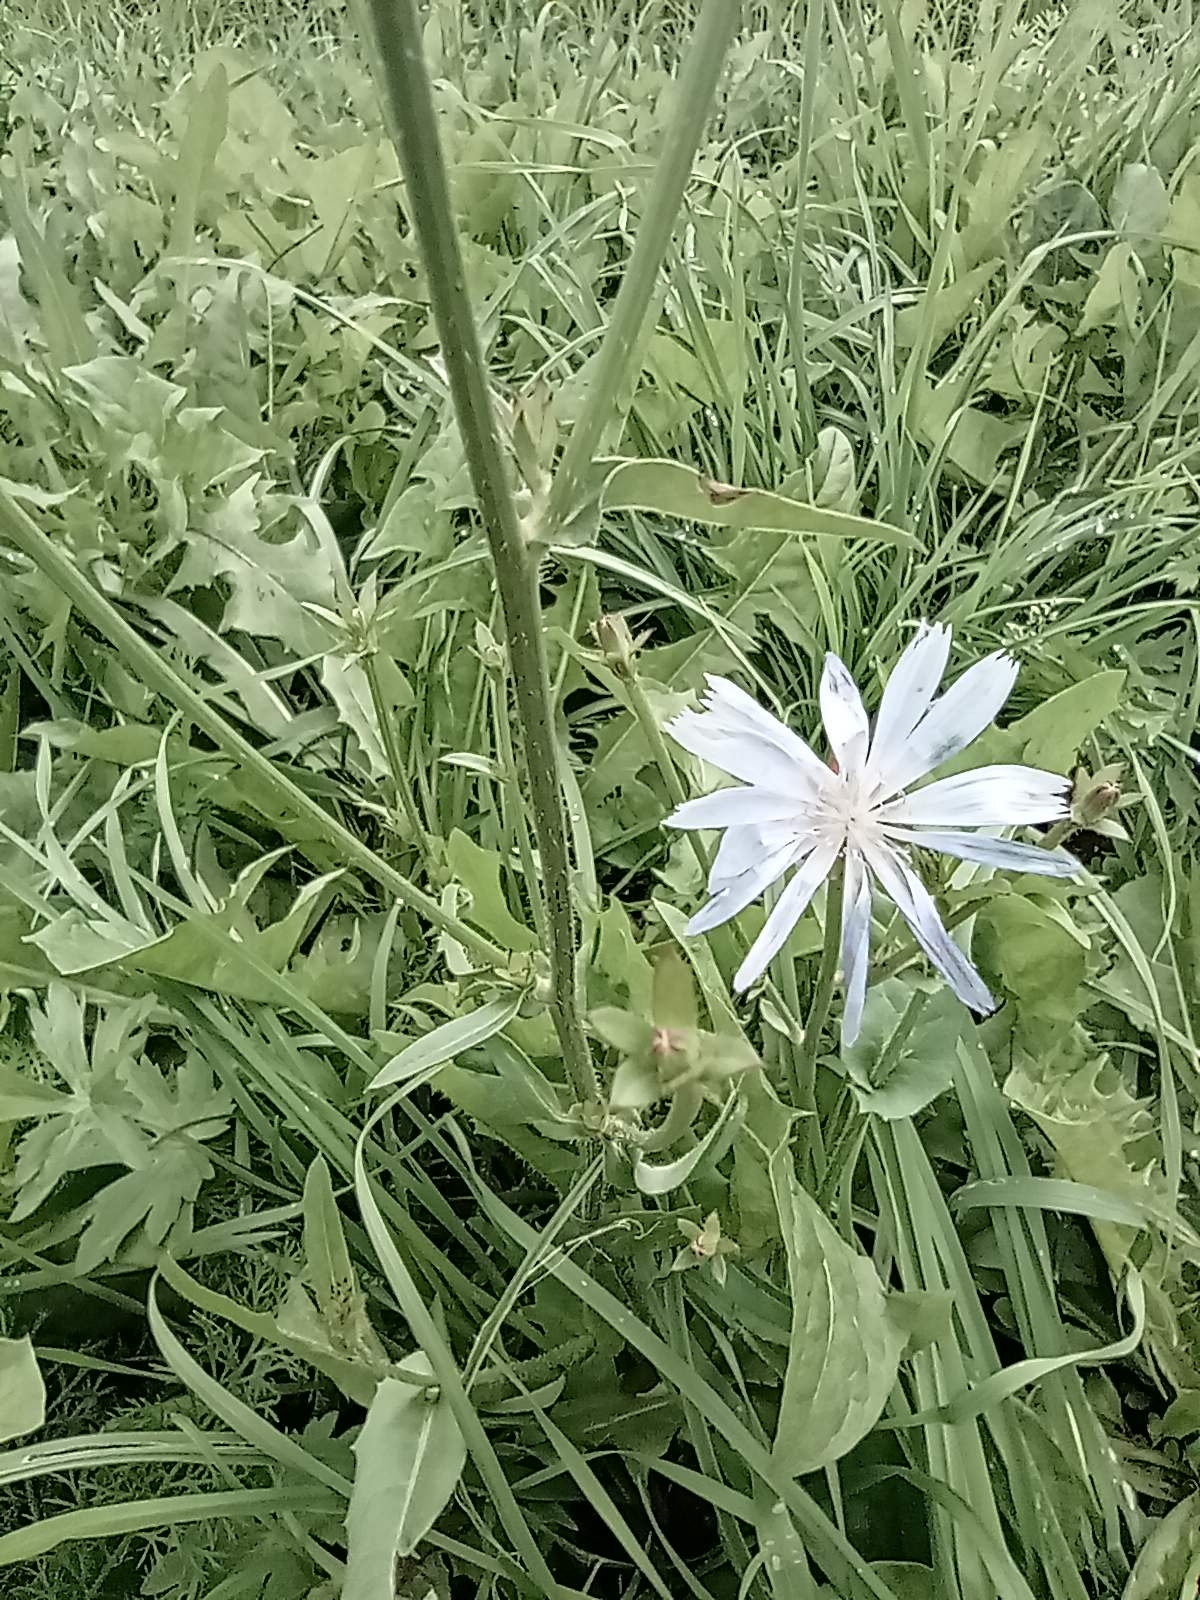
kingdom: Plantae
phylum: Tracheophyta
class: Magnoliopsida
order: Asterales
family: Asteraceae
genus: Cichorium
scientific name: Cichorium intybus
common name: Chicory
